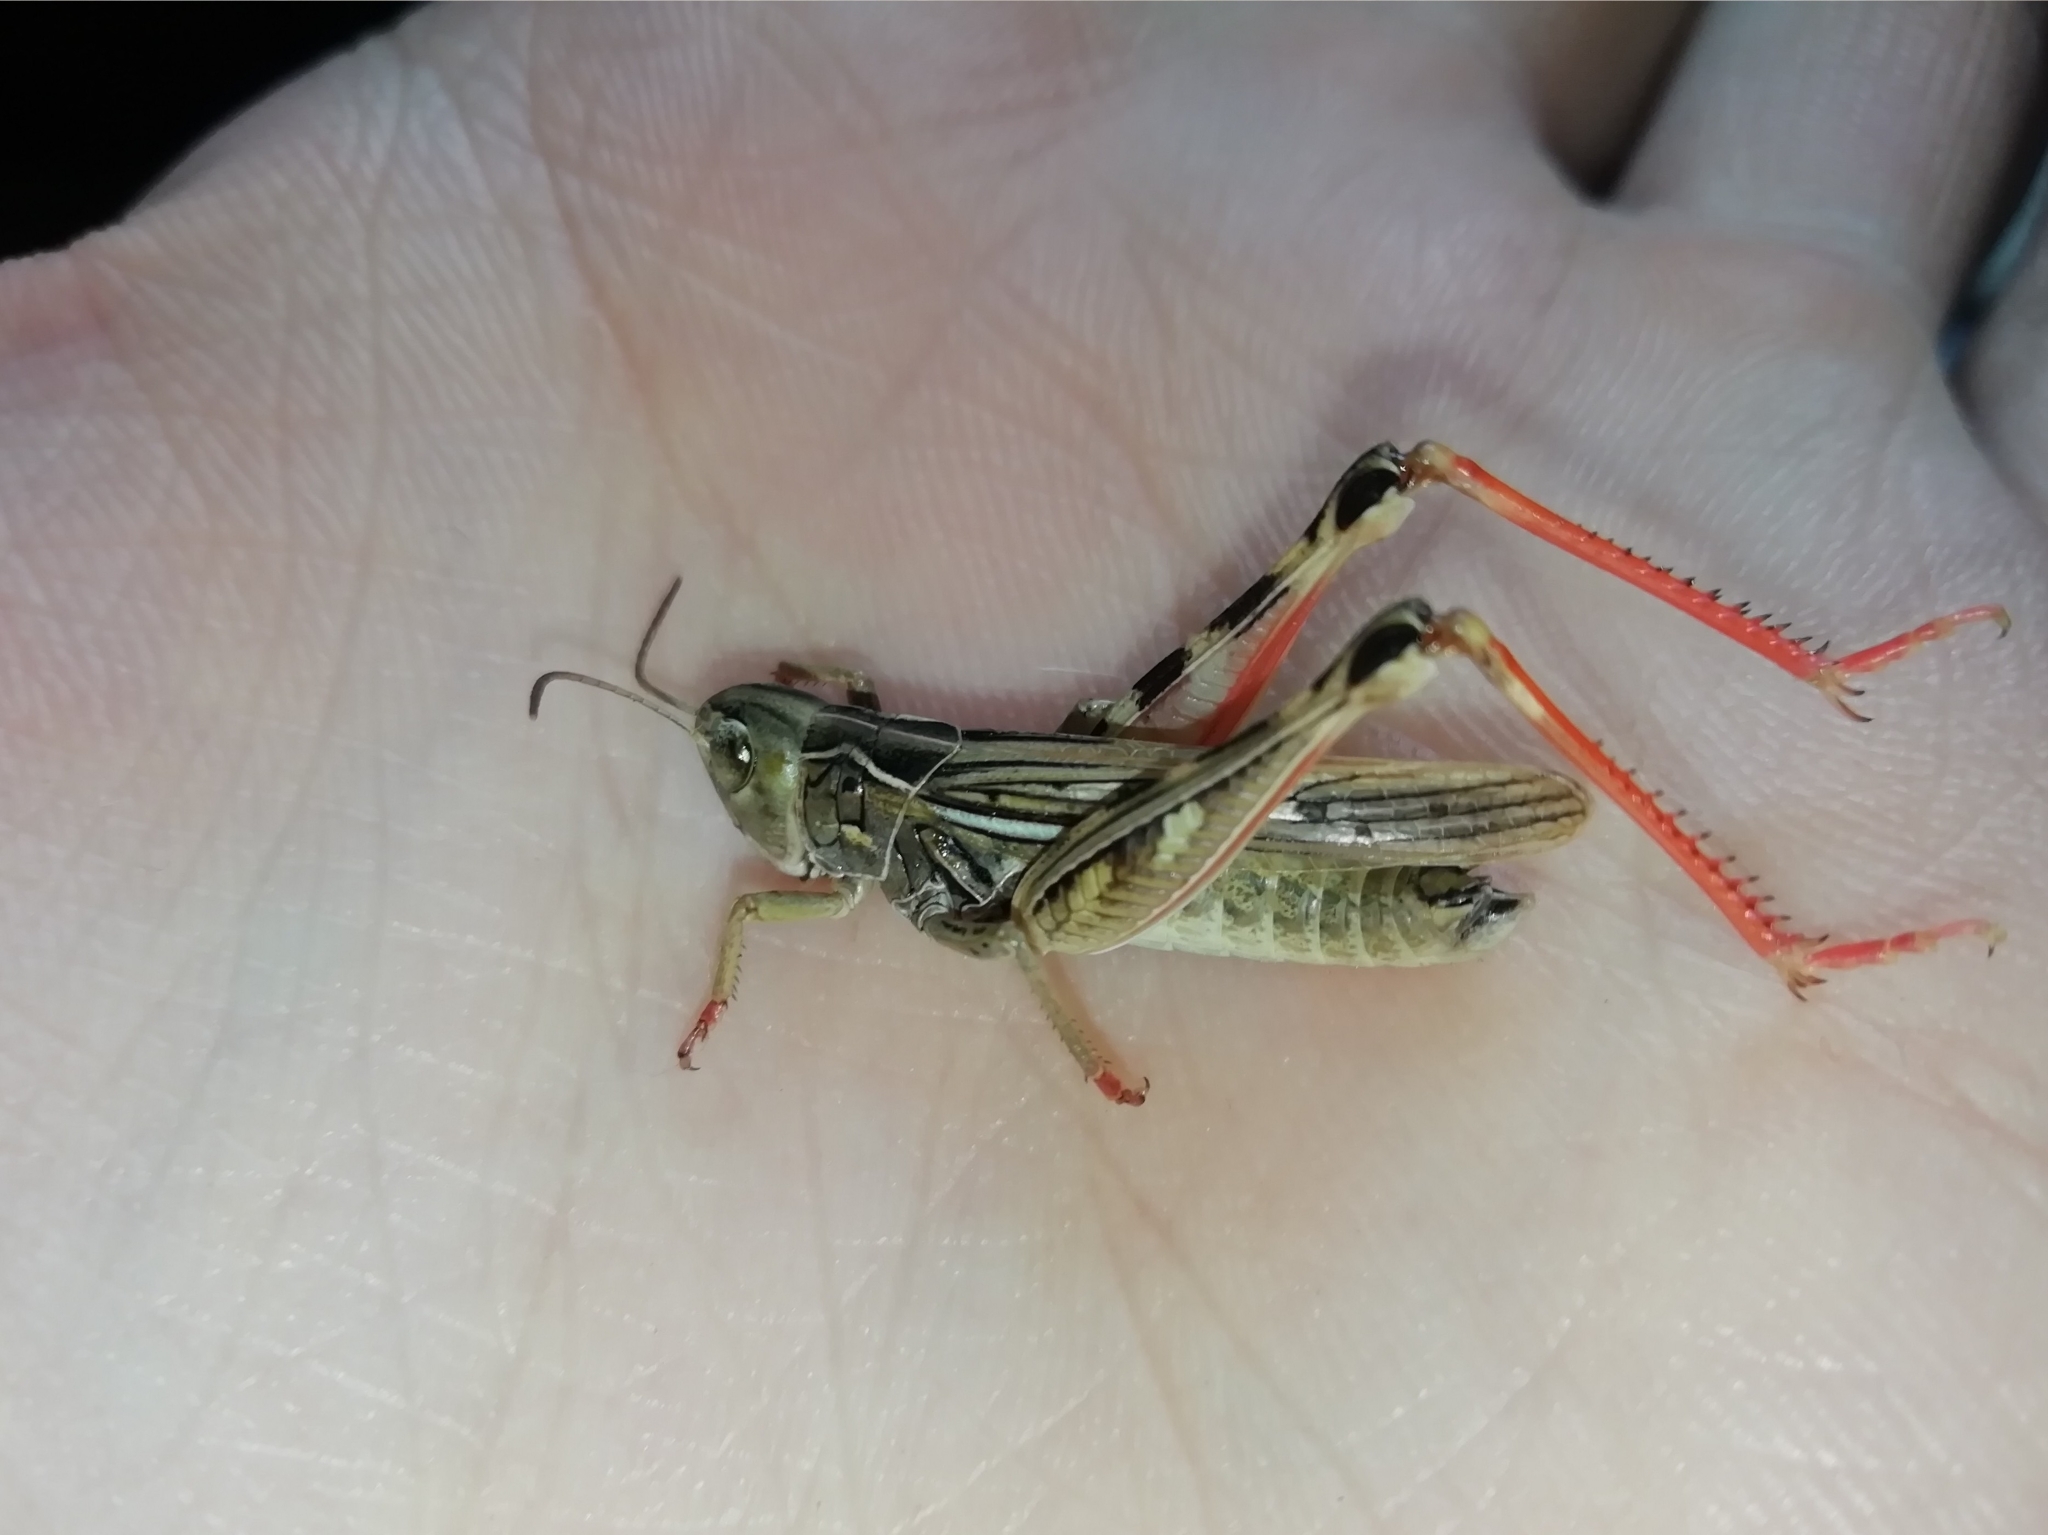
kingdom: Animalia
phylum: Arthropoda
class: Insecta
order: Orthoptera
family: Acrididae
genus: Arcyptera
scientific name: Arcyptera microptera
